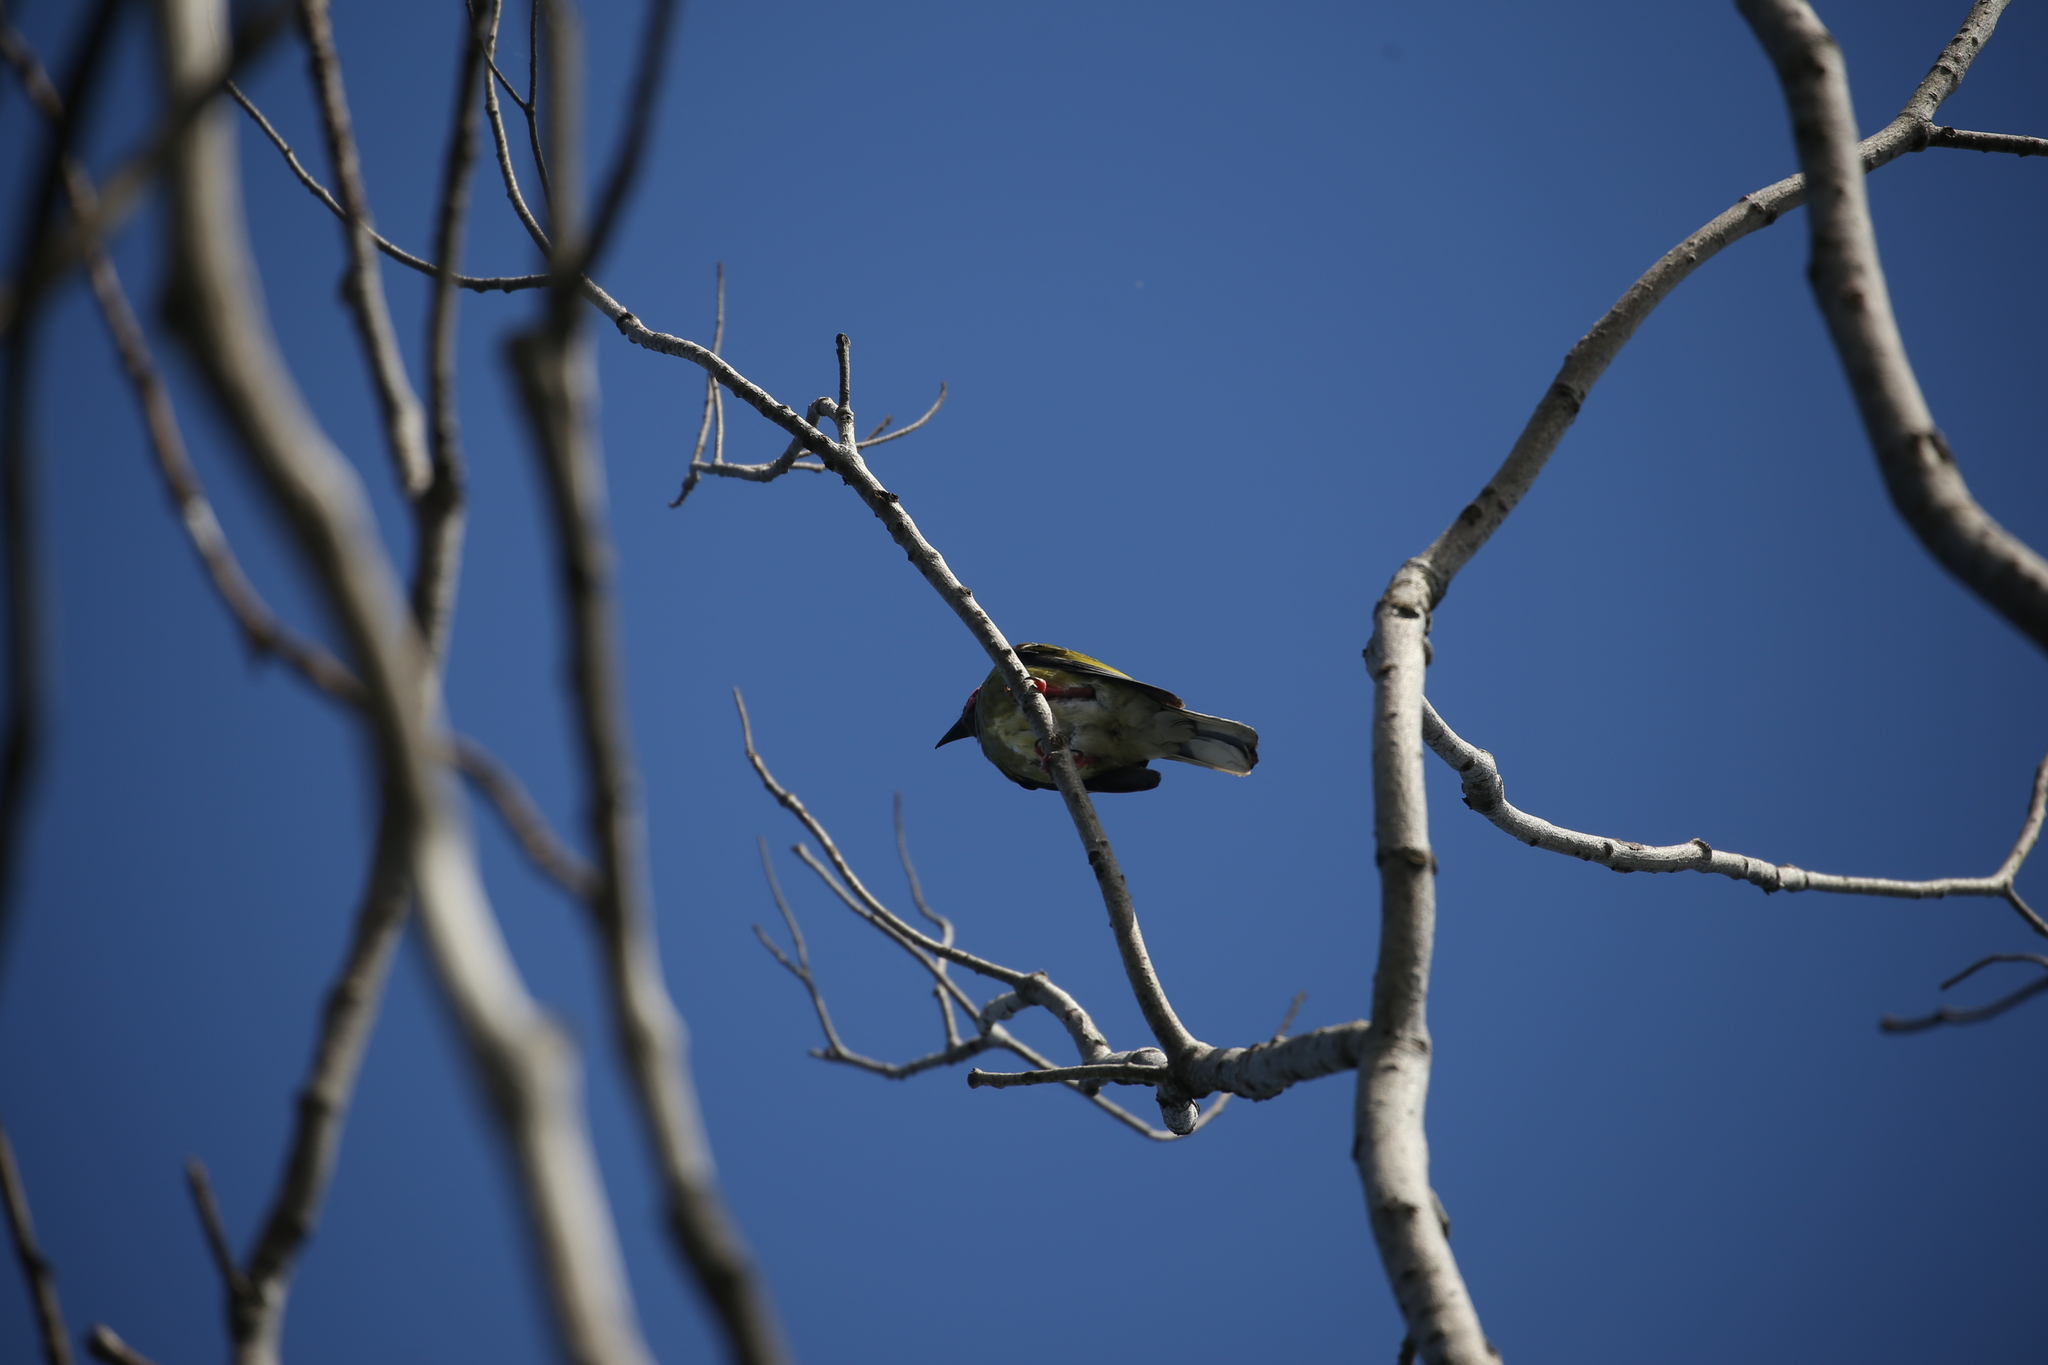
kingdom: Animalia
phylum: Chordata
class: Aves
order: Passeriformes
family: Oriolidae
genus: Sphecotheres
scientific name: Sphecotheres vieilloti
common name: Australasian figbird
